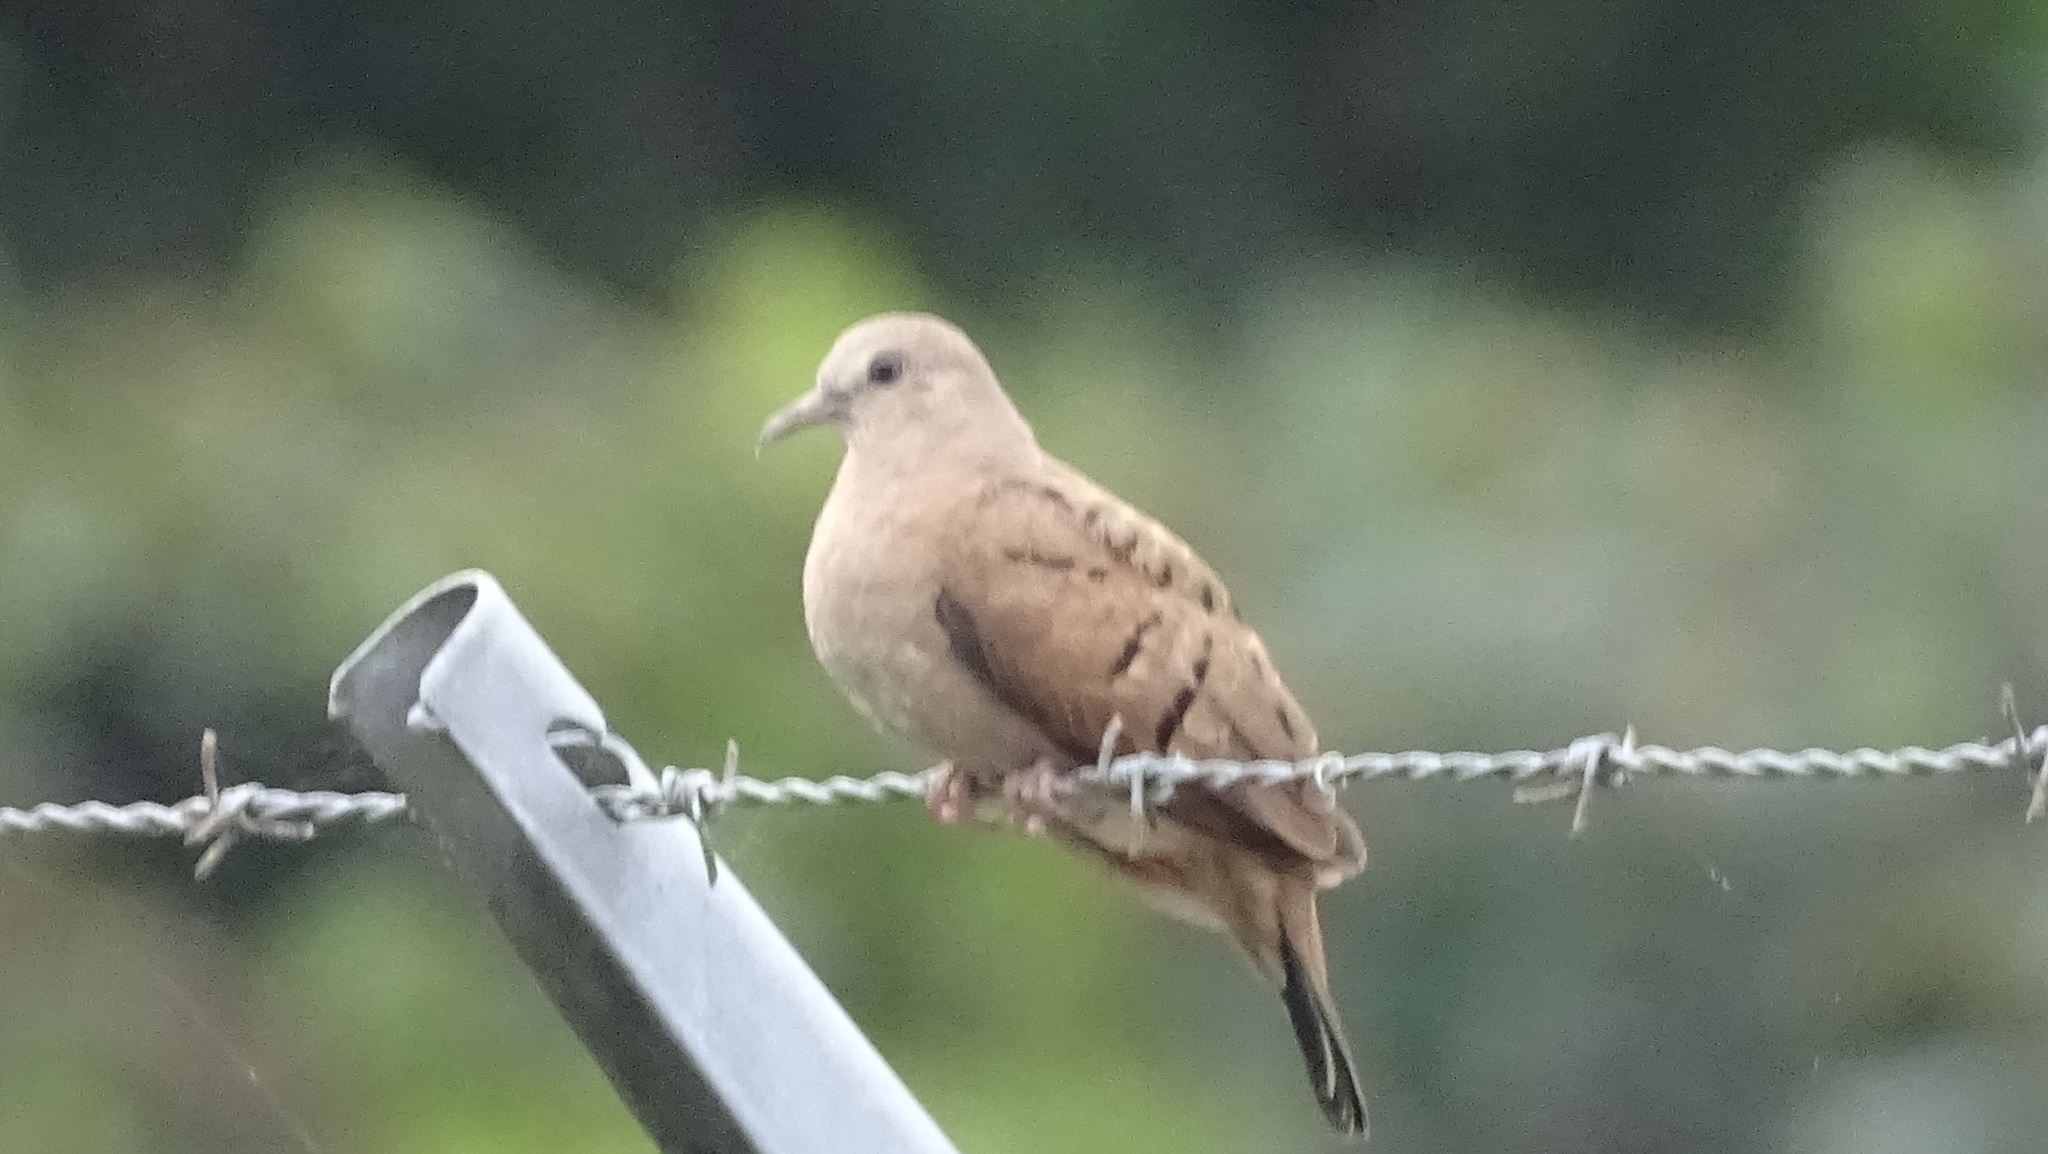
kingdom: Animalia
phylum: Chordata
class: Aves
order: Columbiformes
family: Columbidae
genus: Columbina
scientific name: Columbina talpacoti
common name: Ruddy ground dove
